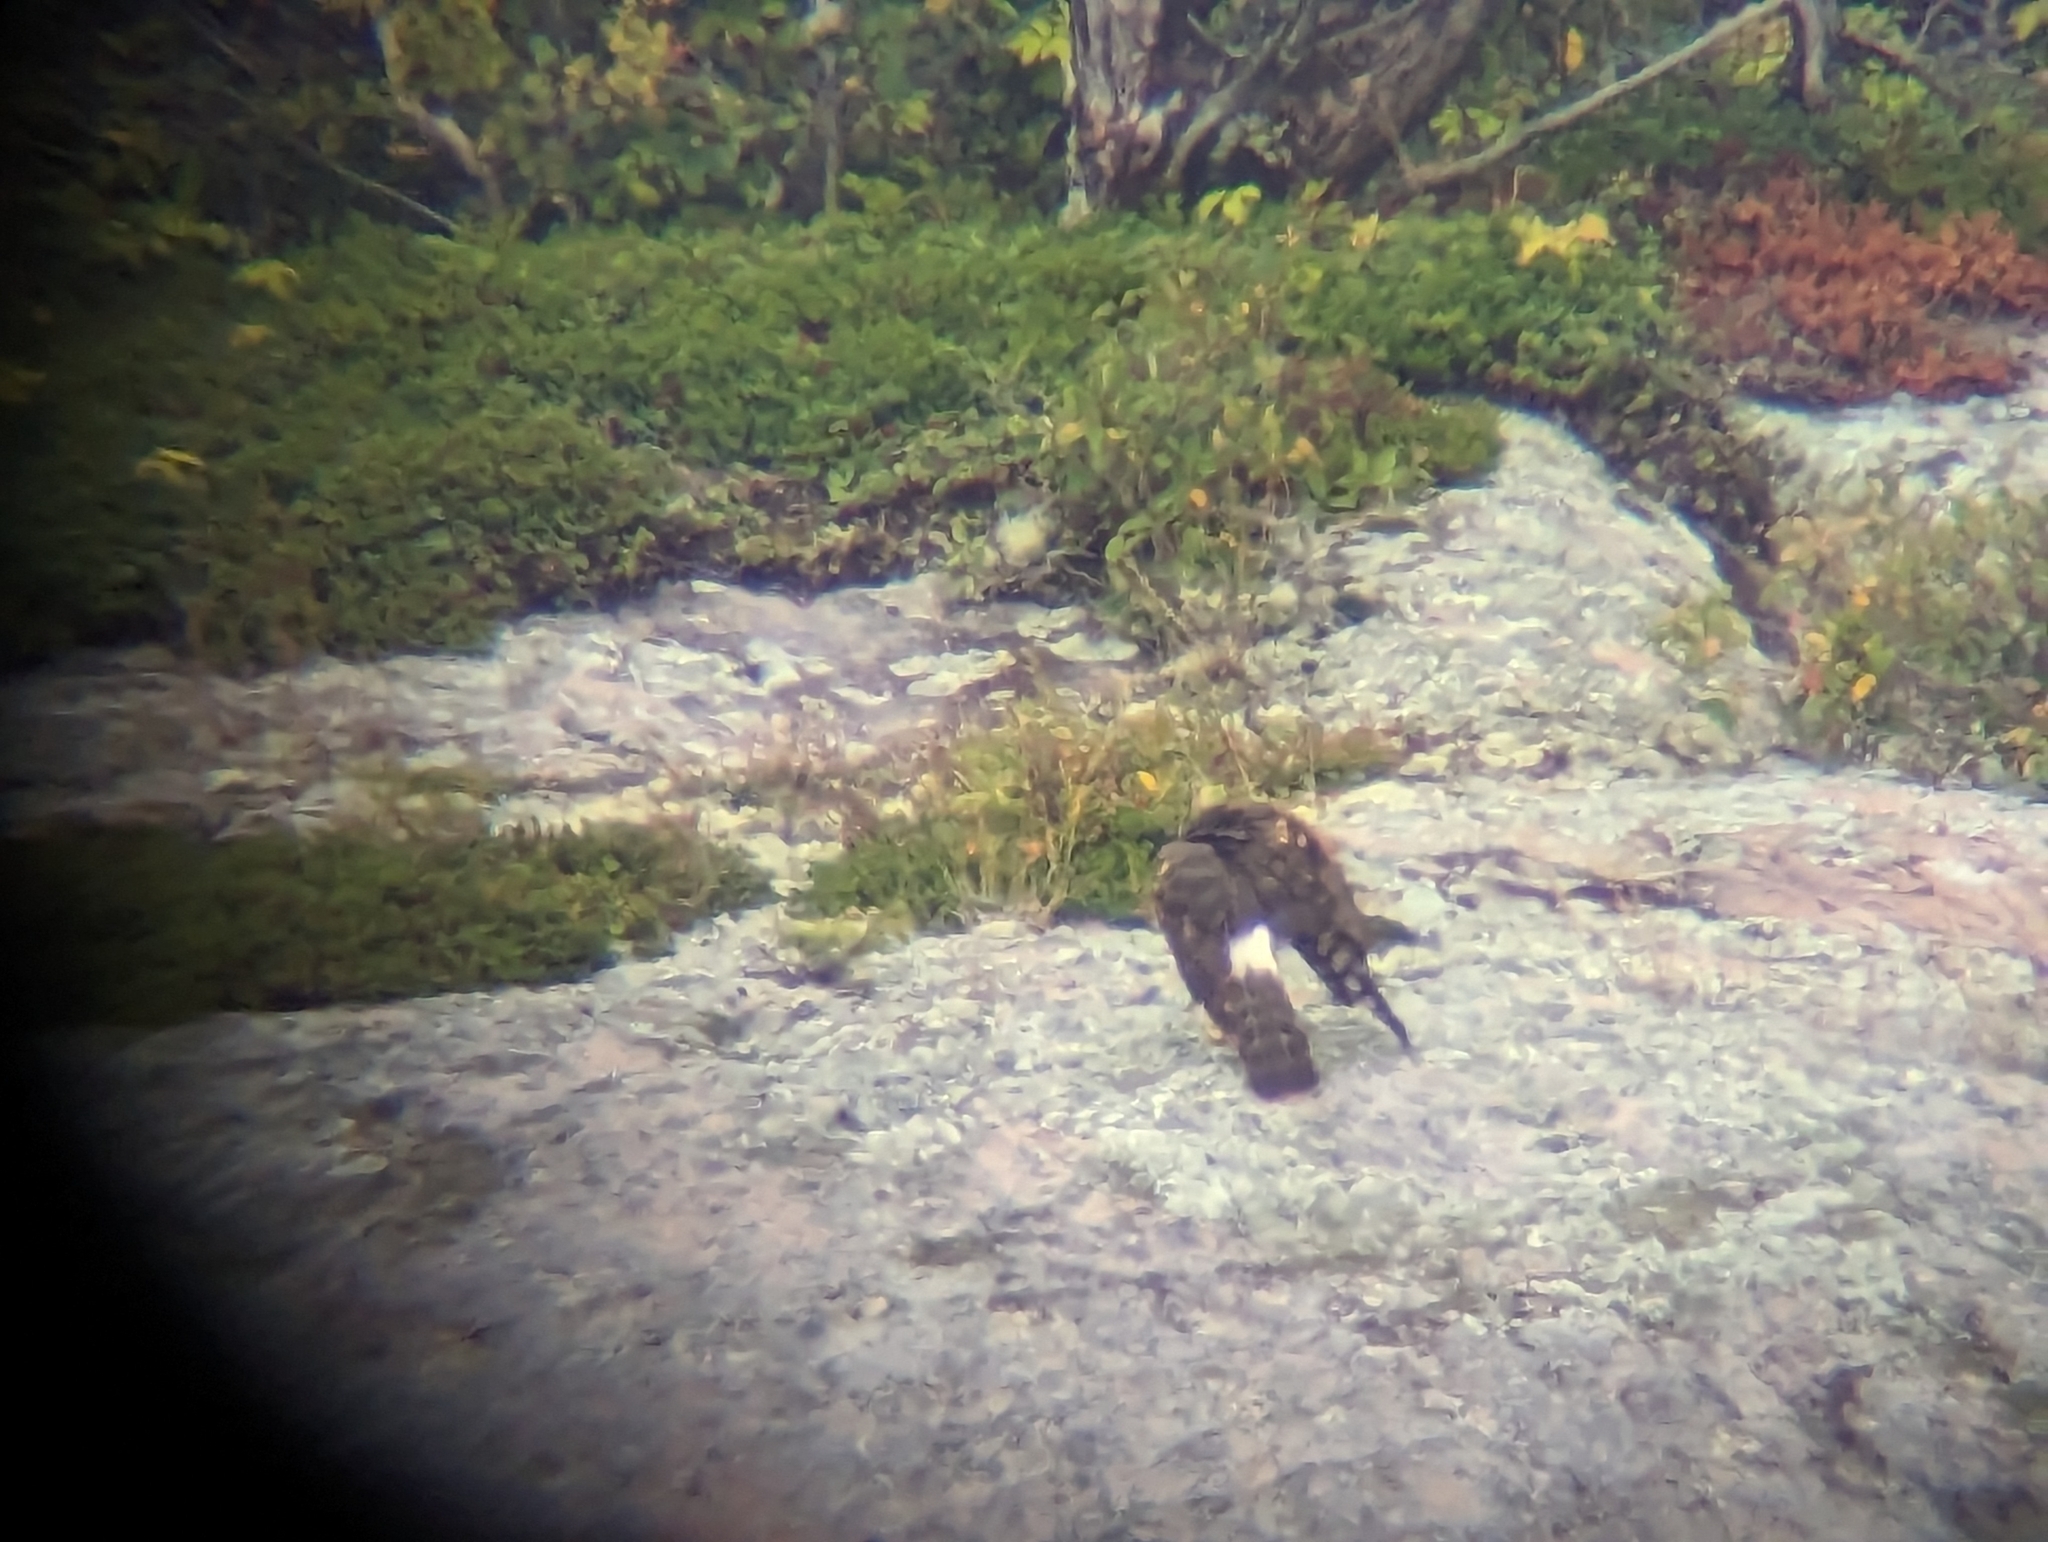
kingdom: Animalia
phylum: Chordata
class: Aves
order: Accipitriformes
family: Accipitridae
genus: Circus
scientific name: Circus cyaneus
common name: Hen harrier
